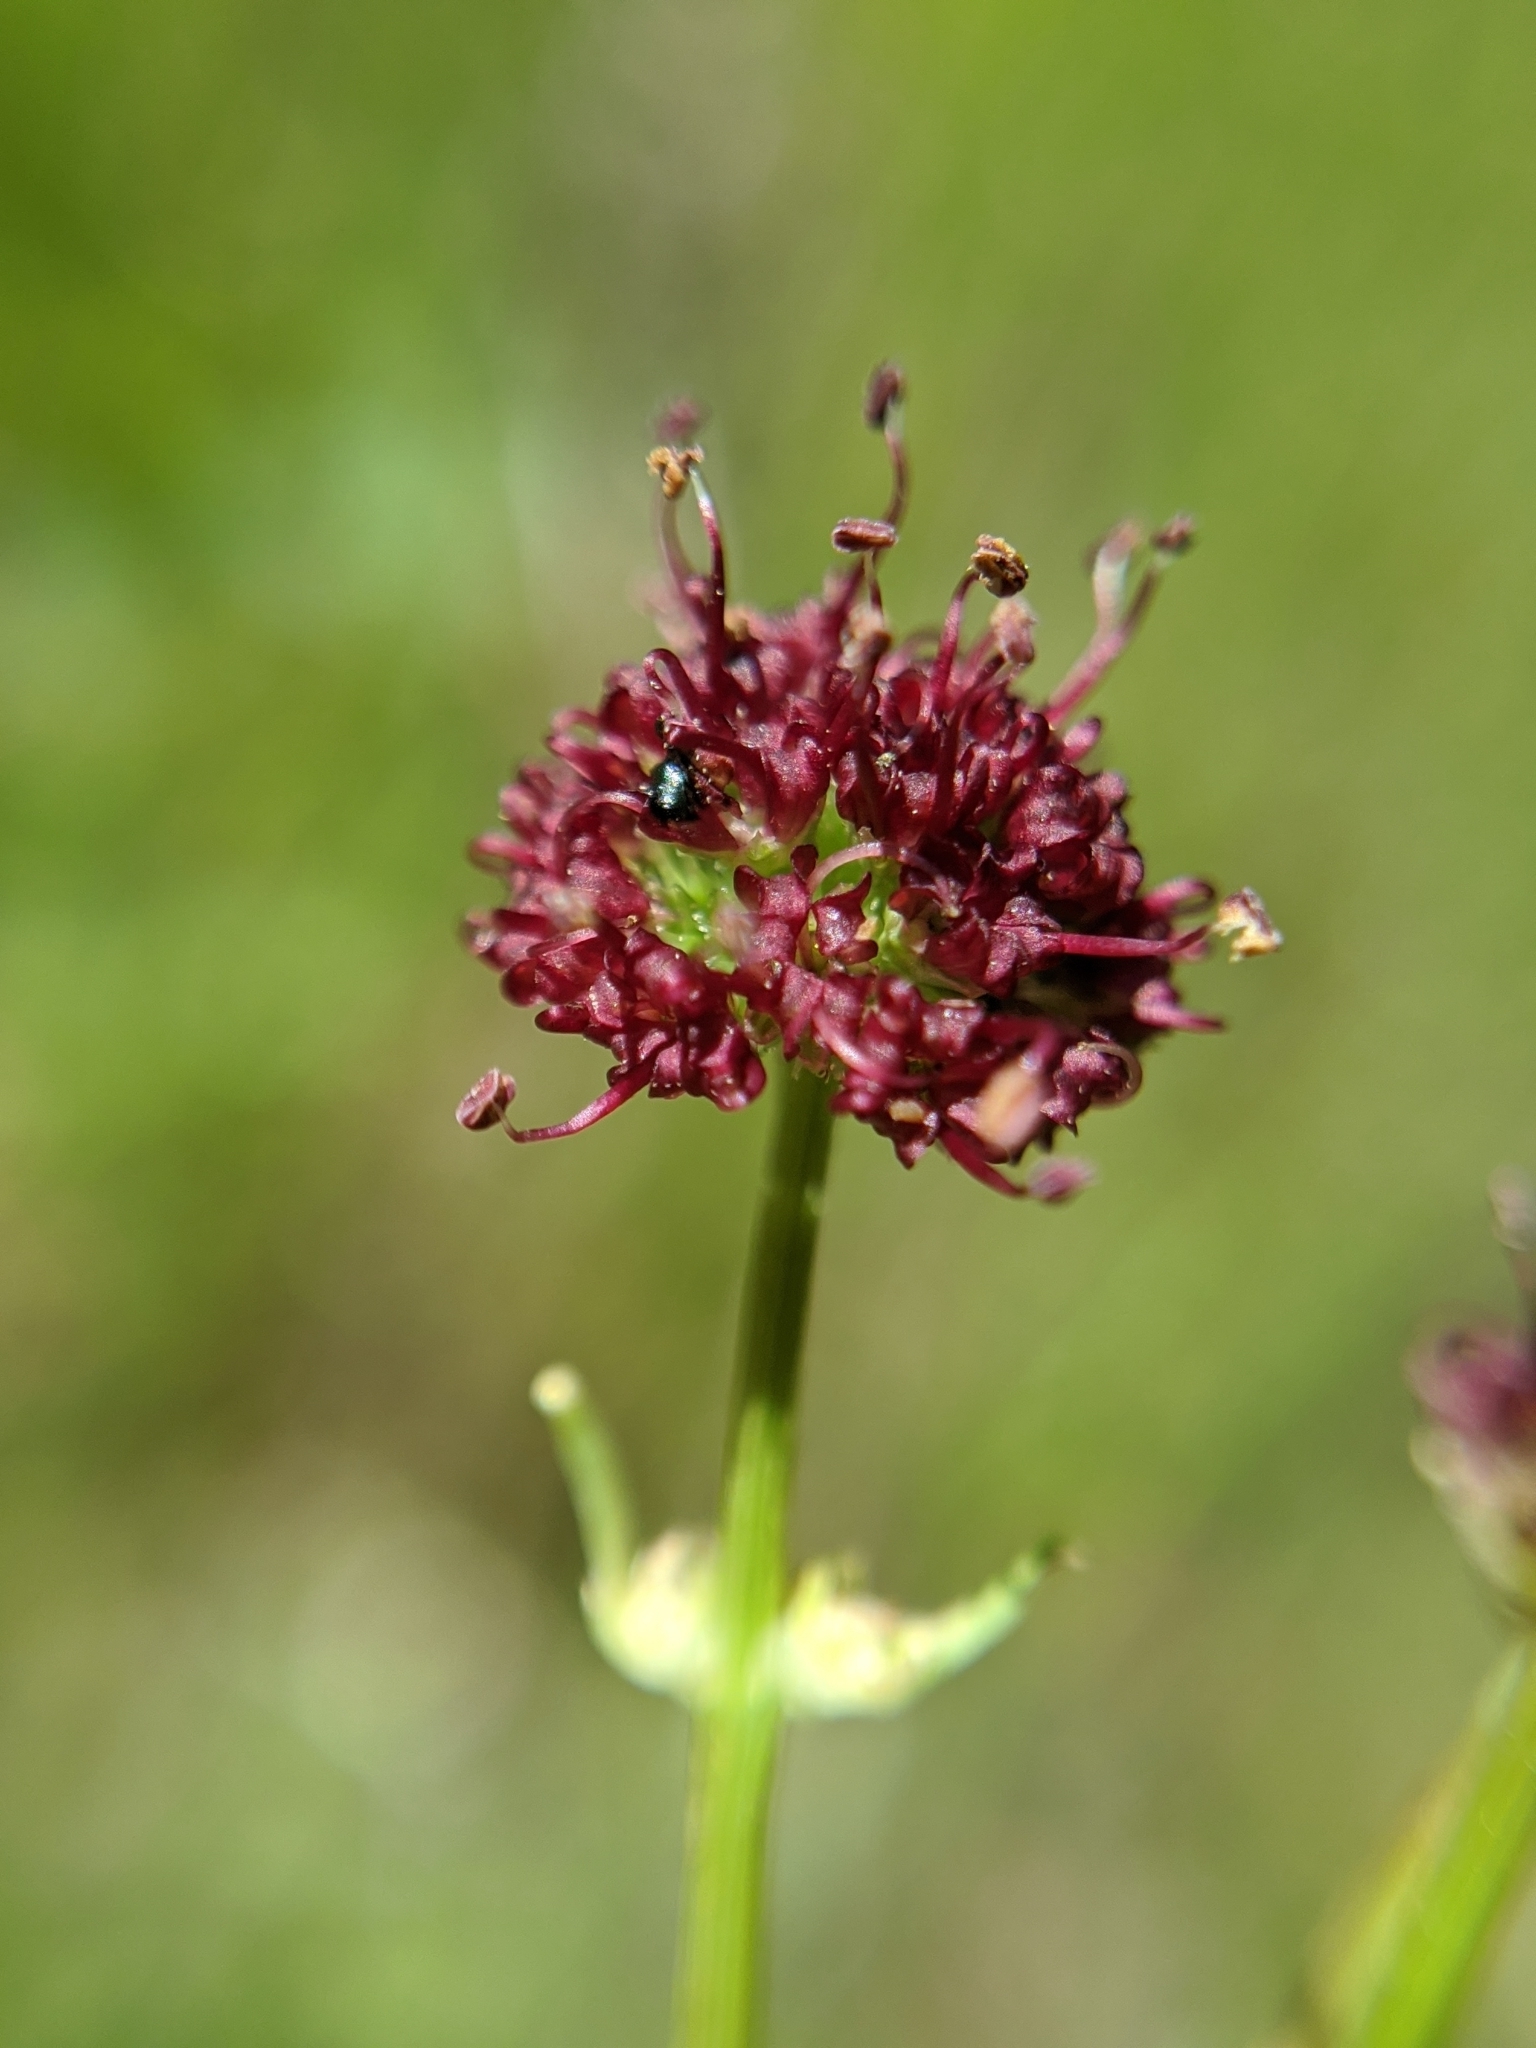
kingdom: Plantae
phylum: Tracheophyta
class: Magnoliopsida
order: Apiales
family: Apiaceae
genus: Sanicula
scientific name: Sanicula bipinnatifida
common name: Shoe-buttons
